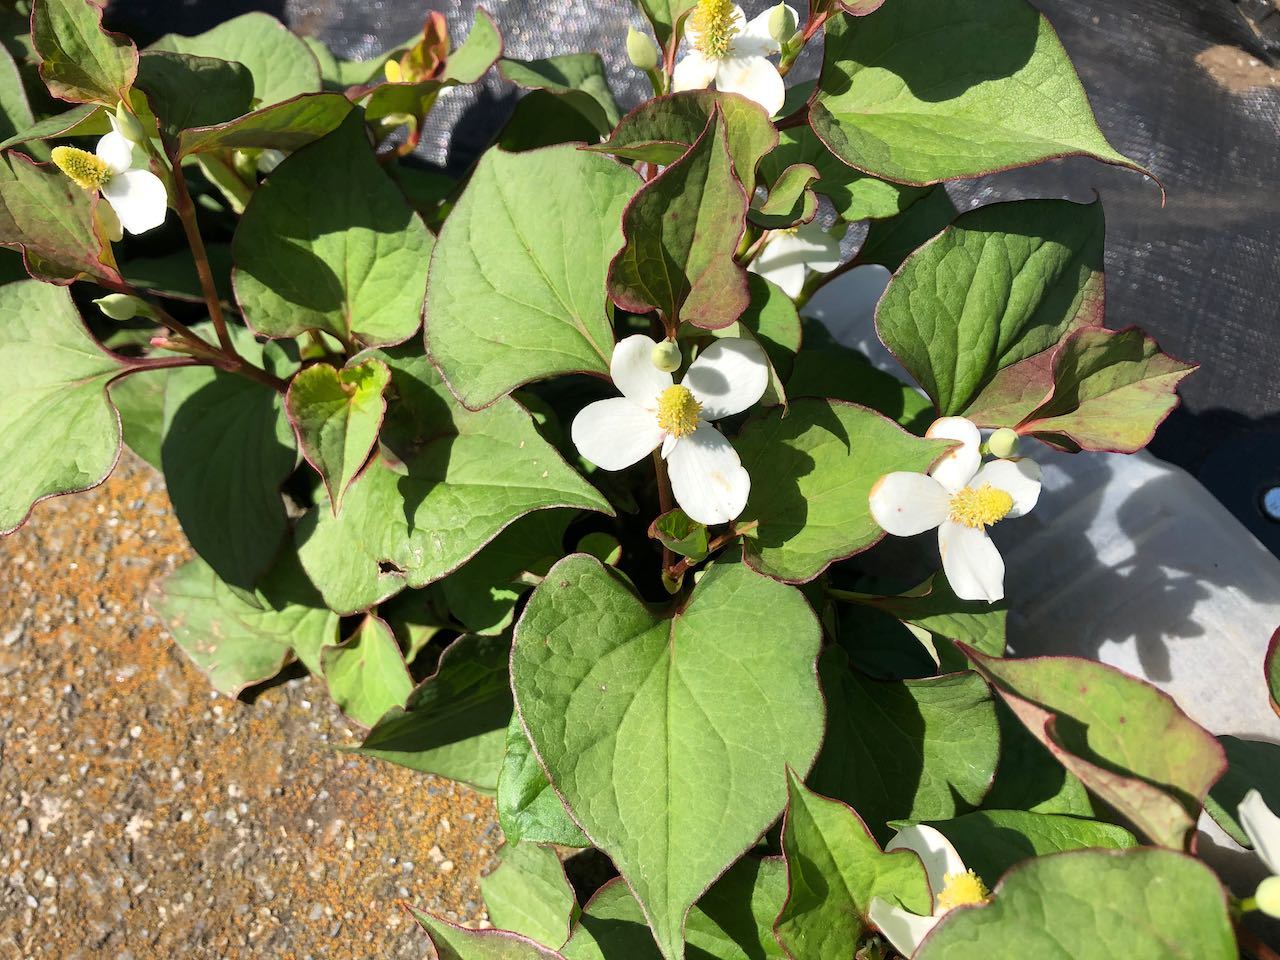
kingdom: Plantae
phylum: Tracheophyta
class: Magnoliopsida
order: Piperales
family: Saururaceae
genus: Houttuynia
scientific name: Houttuynia cordata
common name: Chameleon
